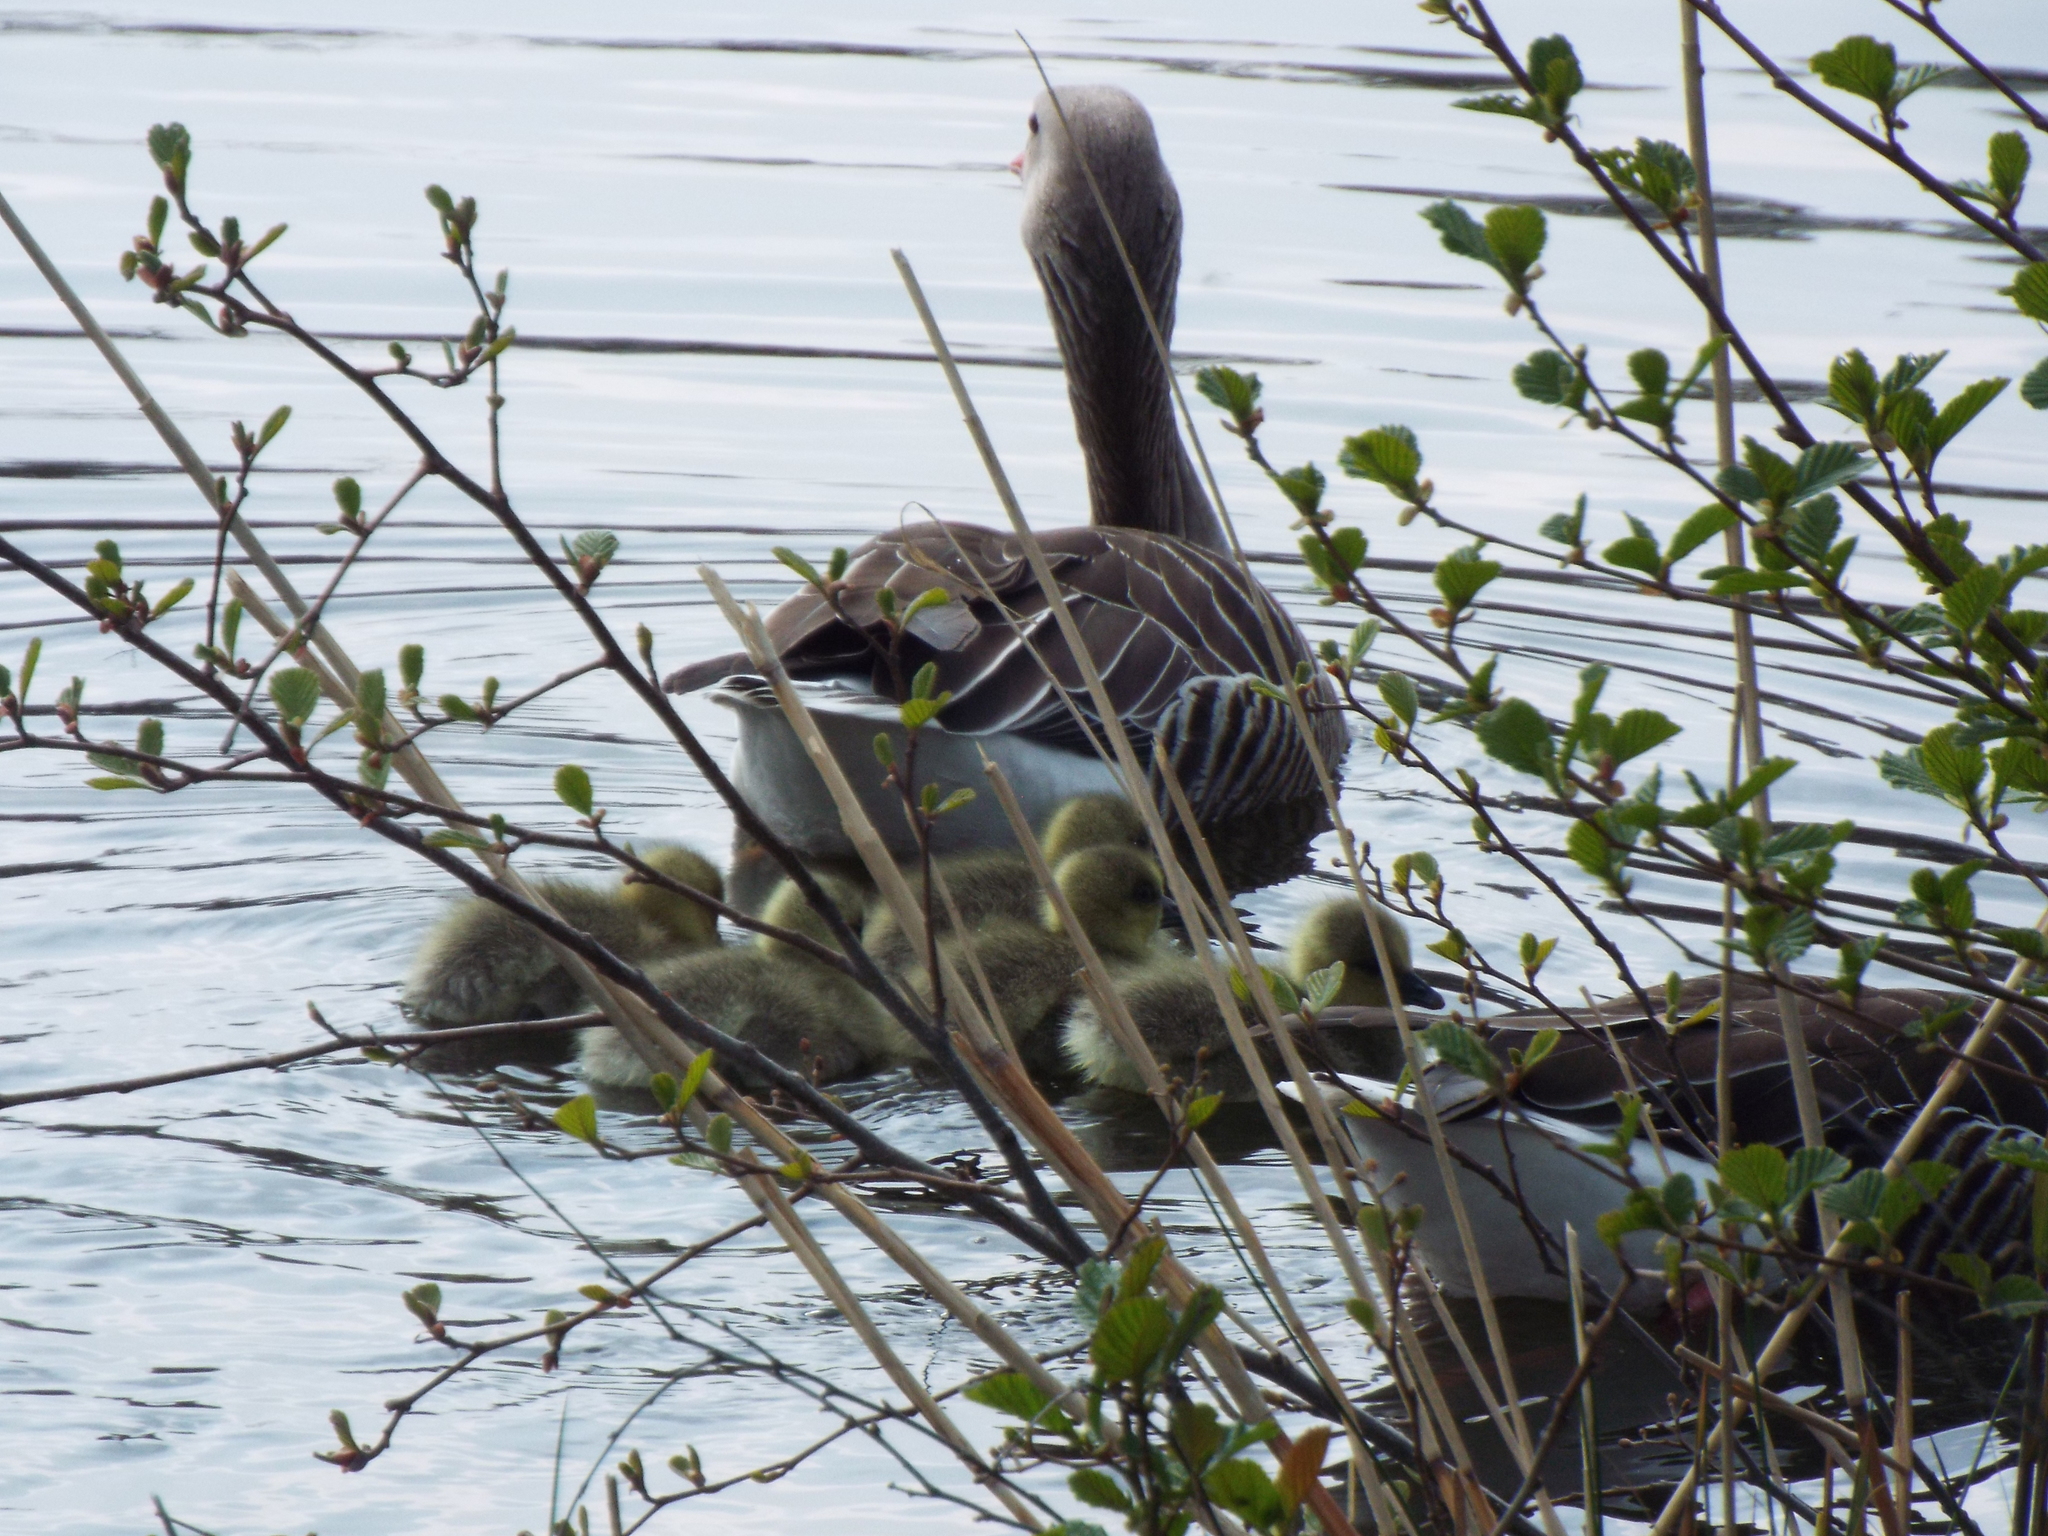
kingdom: Animalia
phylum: Chordata
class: Aves
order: Anseriformes
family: Anatidae
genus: Anser
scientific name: Anser anser
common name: Greylag goose
